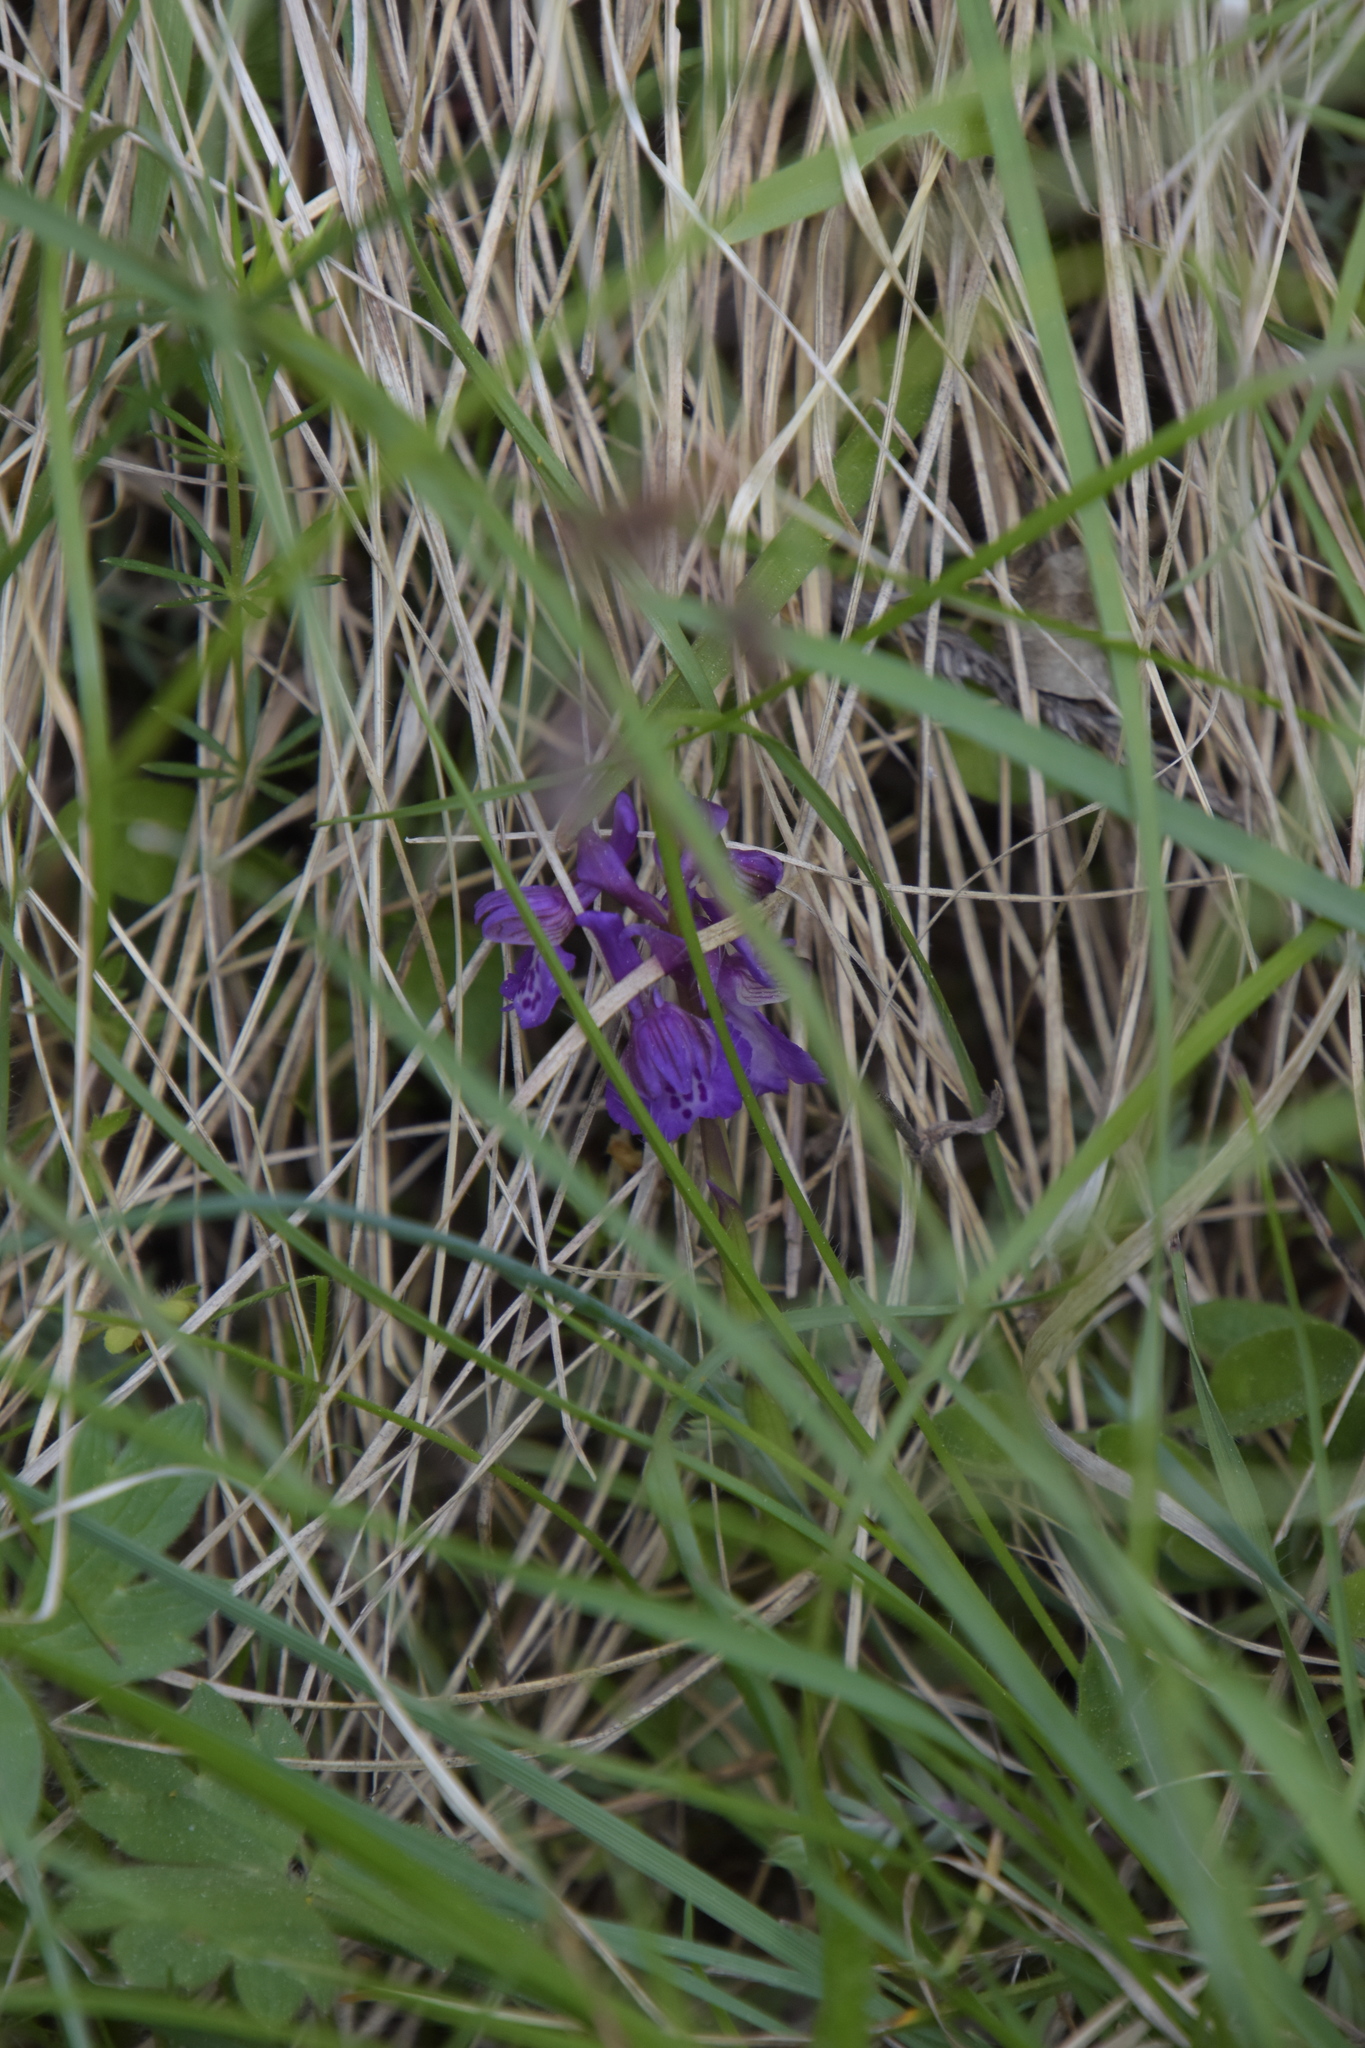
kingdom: Plantae
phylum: Tracheophyta
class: Liliopsida
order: Asparagales
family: Orchidaceae
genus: Anacamptis
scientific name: Anacamptis morio
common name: Green-winged orchid
